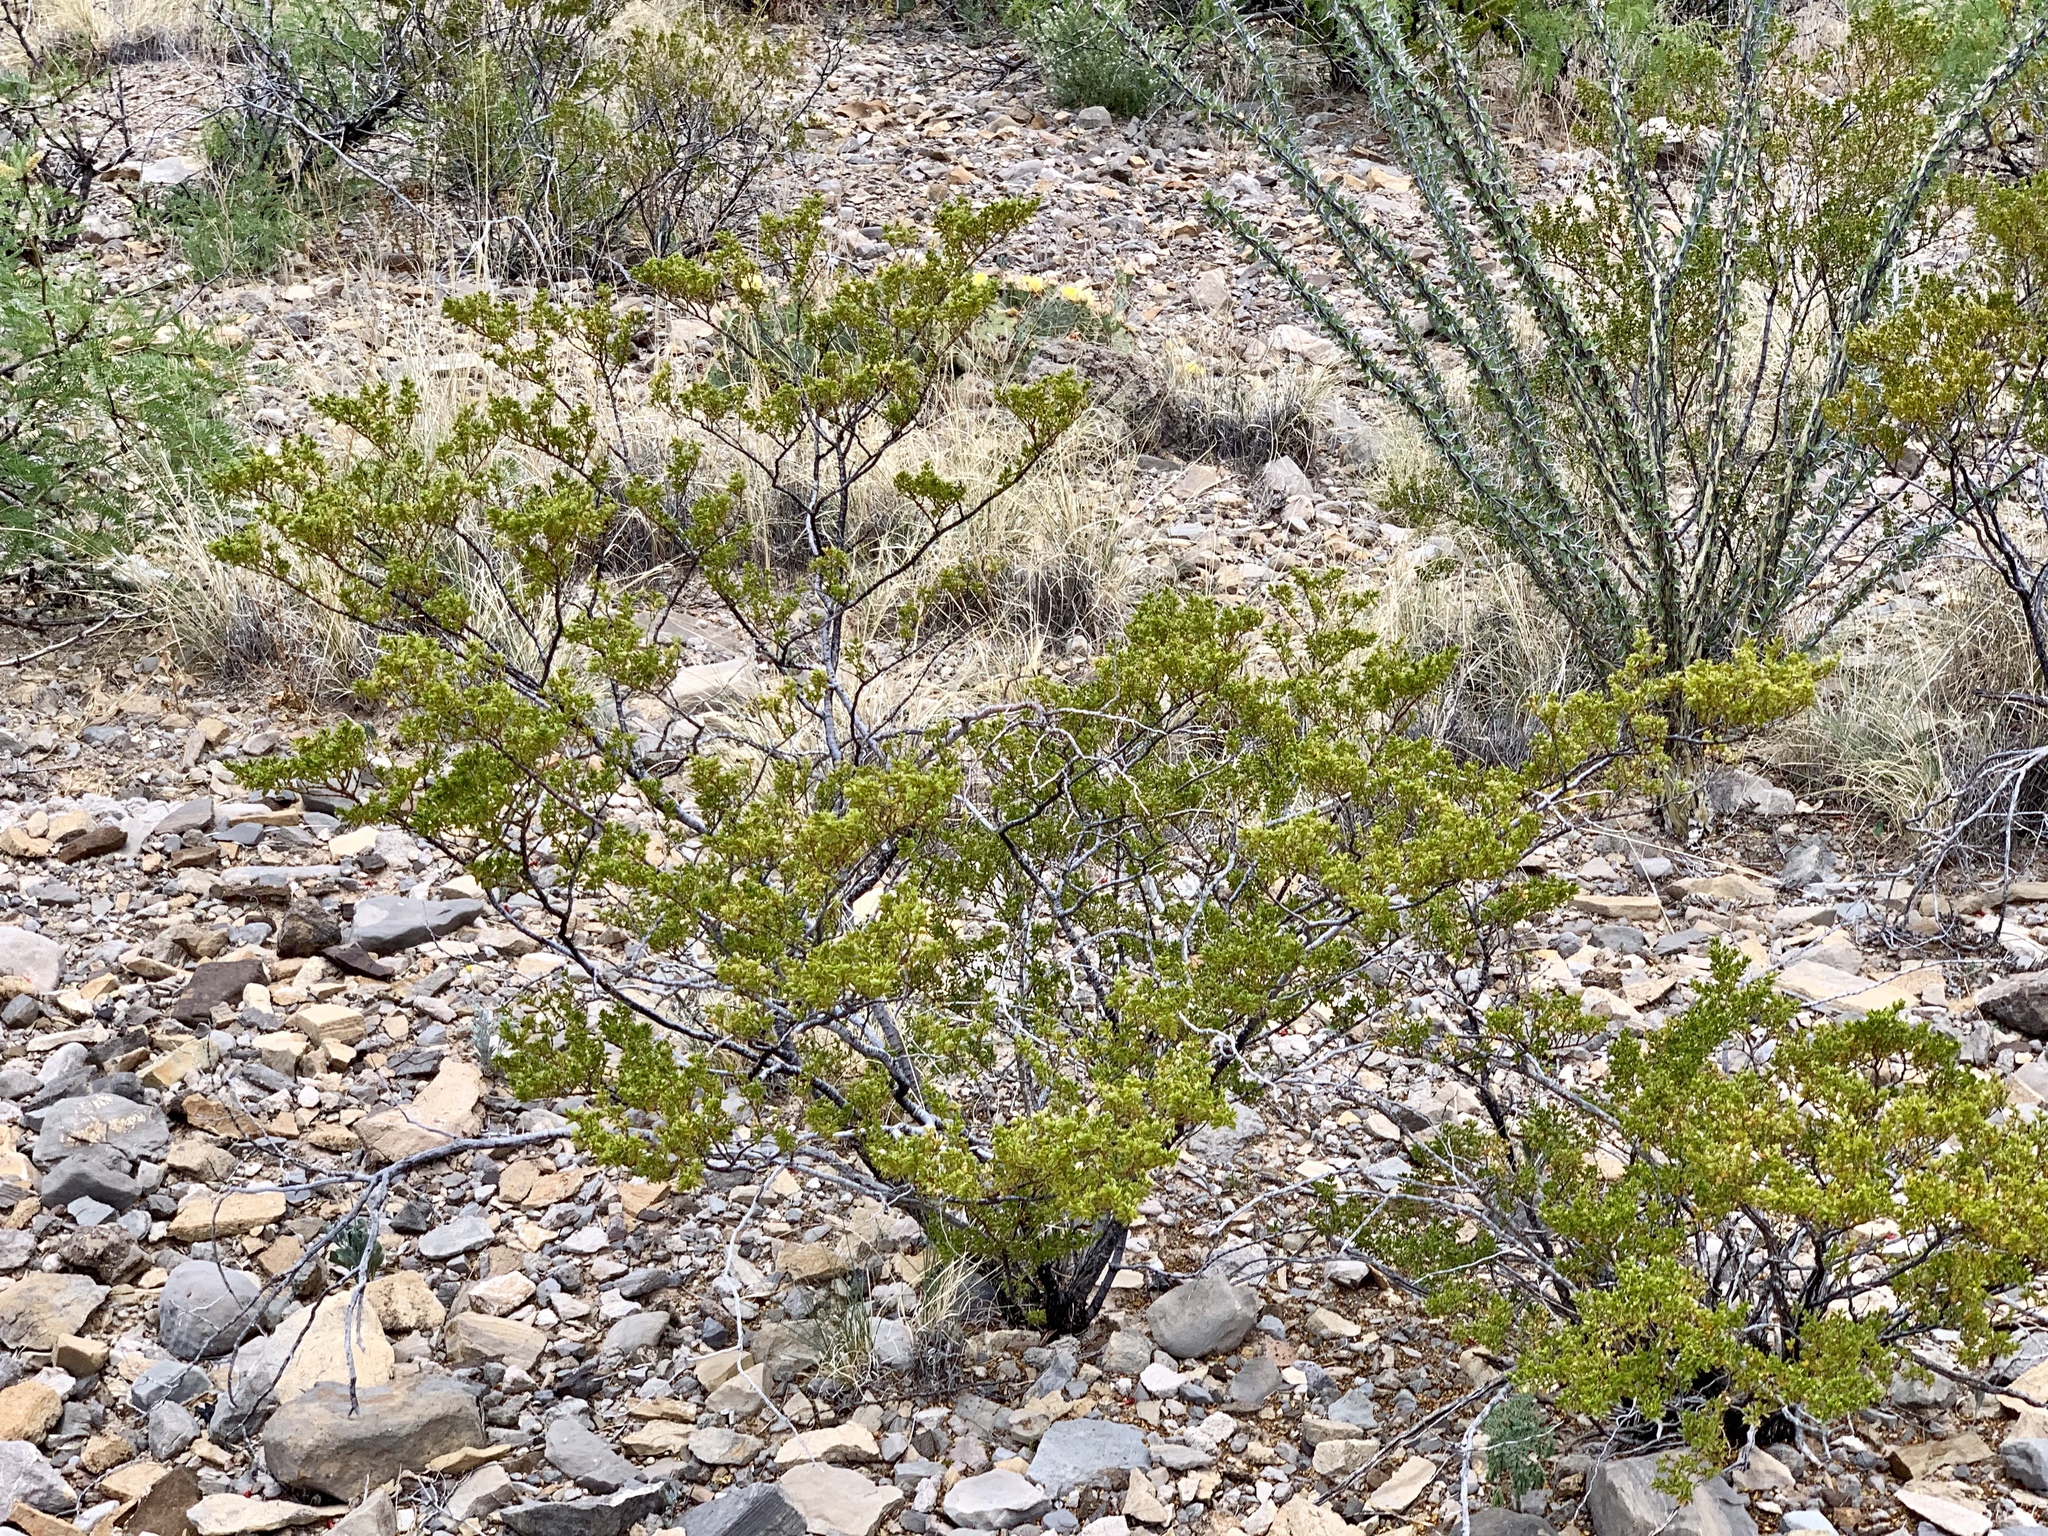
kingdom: Plantae
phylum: Tracheophyta
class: Magnoliopsida
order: Zygophyllales
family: Zygophyllaceae
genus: Larrea
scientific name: Larrea tridentata
